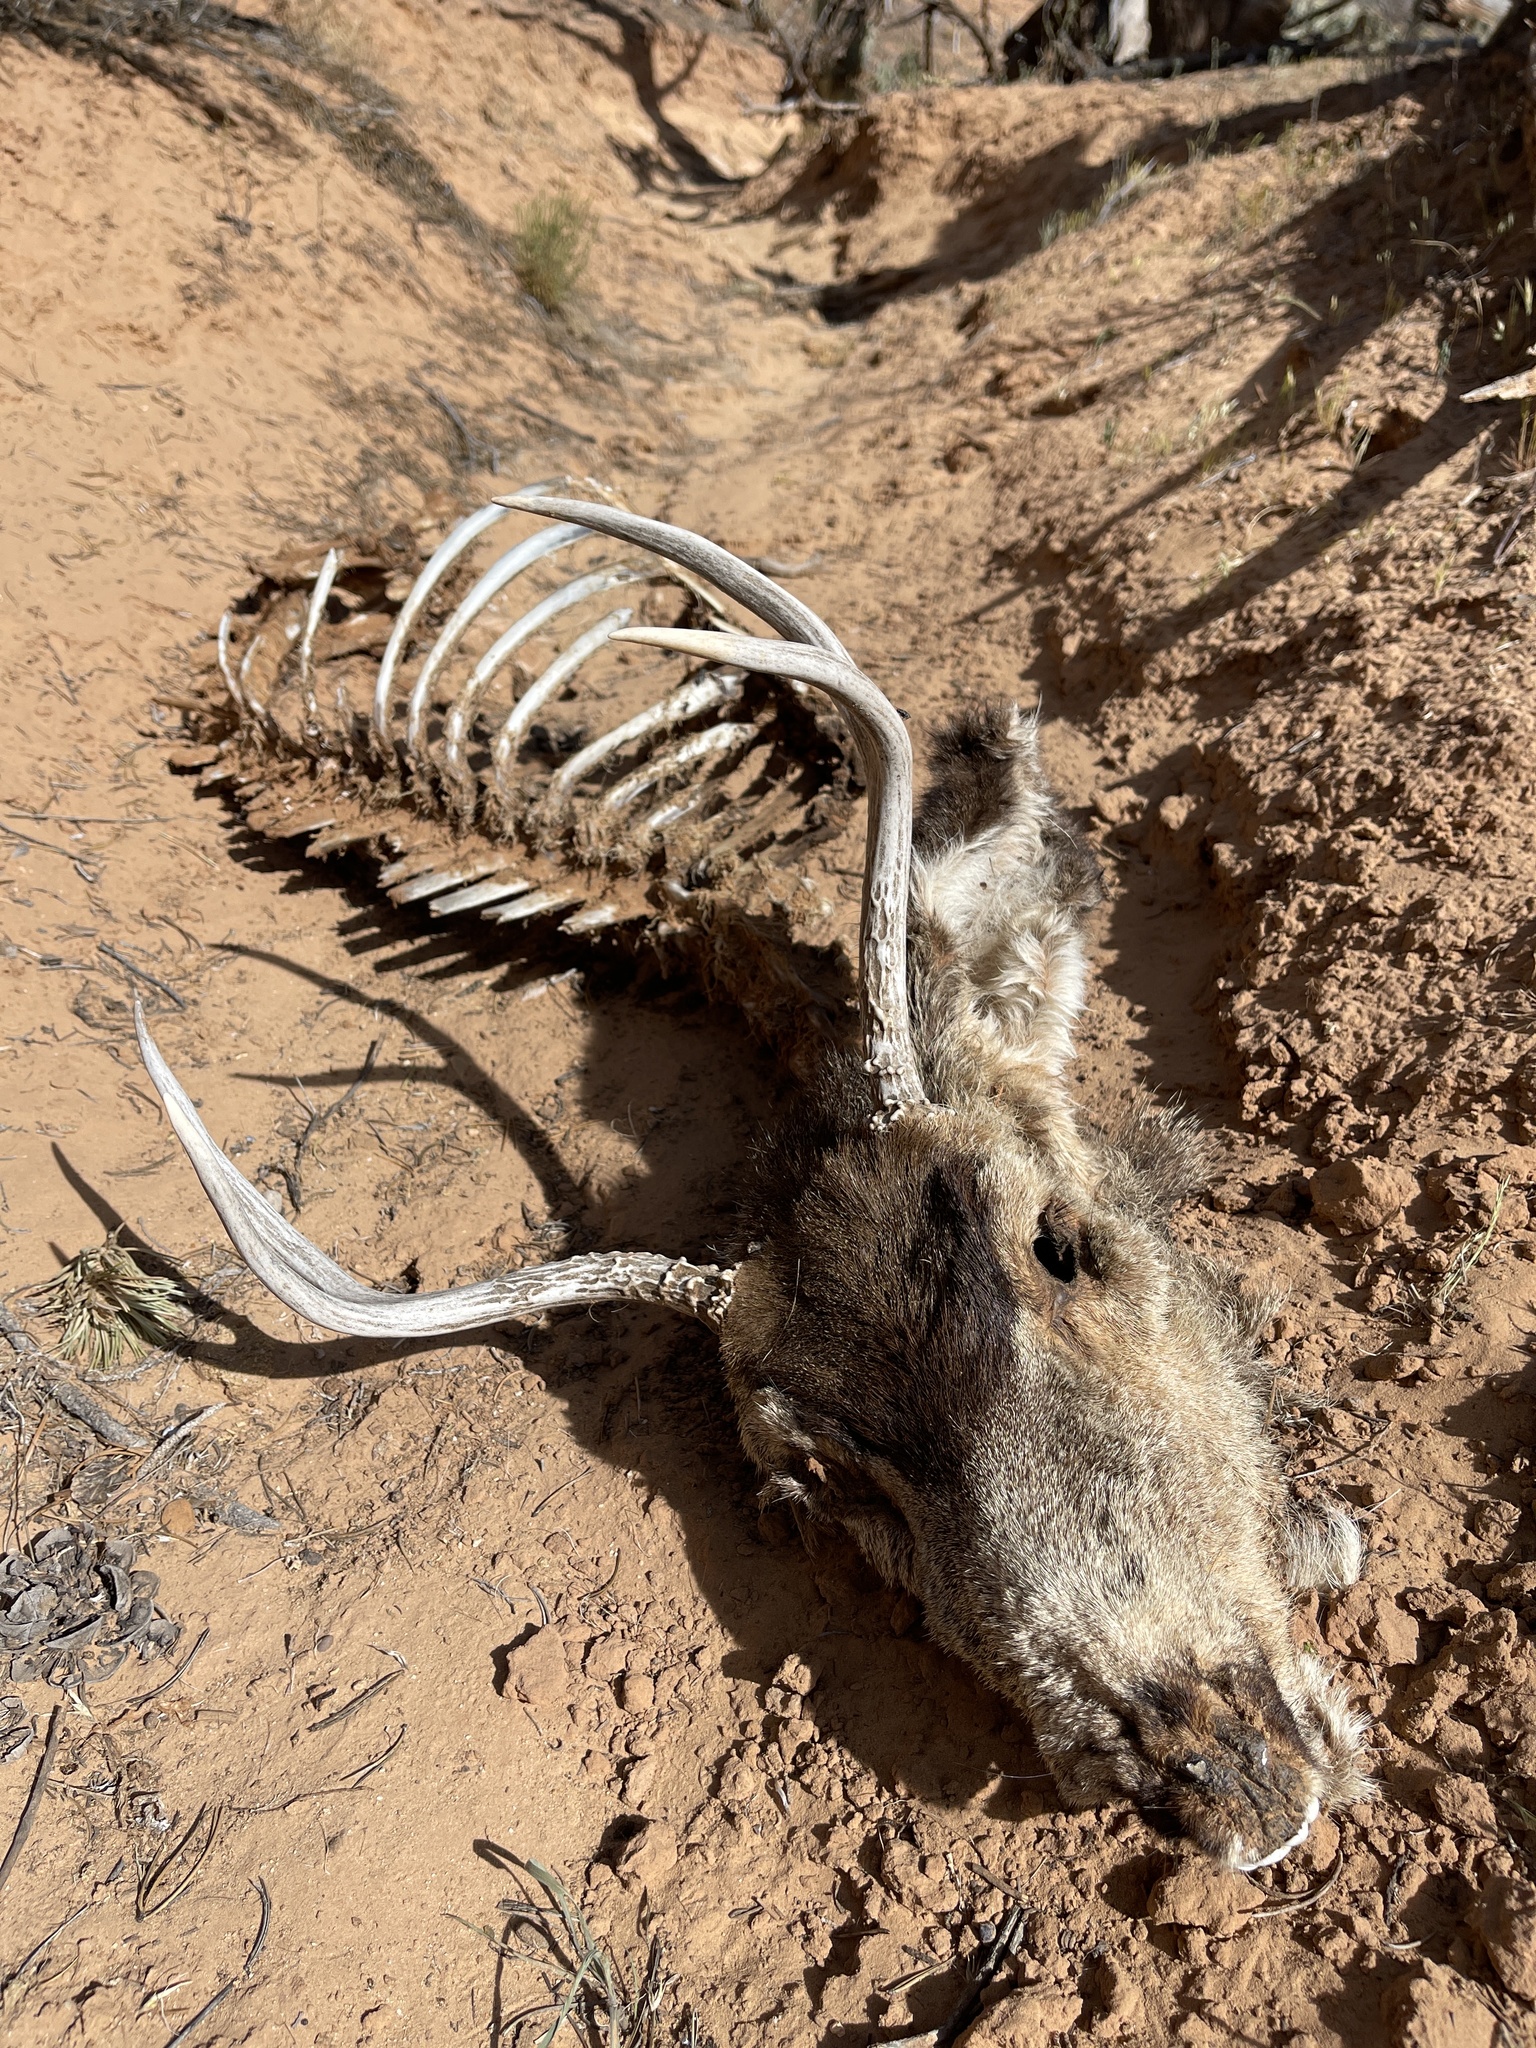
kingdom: Animalia
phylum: Chordata
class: Mammalia
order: Artiodactyla
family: Cervidae
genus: Odocoileus
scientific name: Odocoileus hemionus
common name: Mule deer
